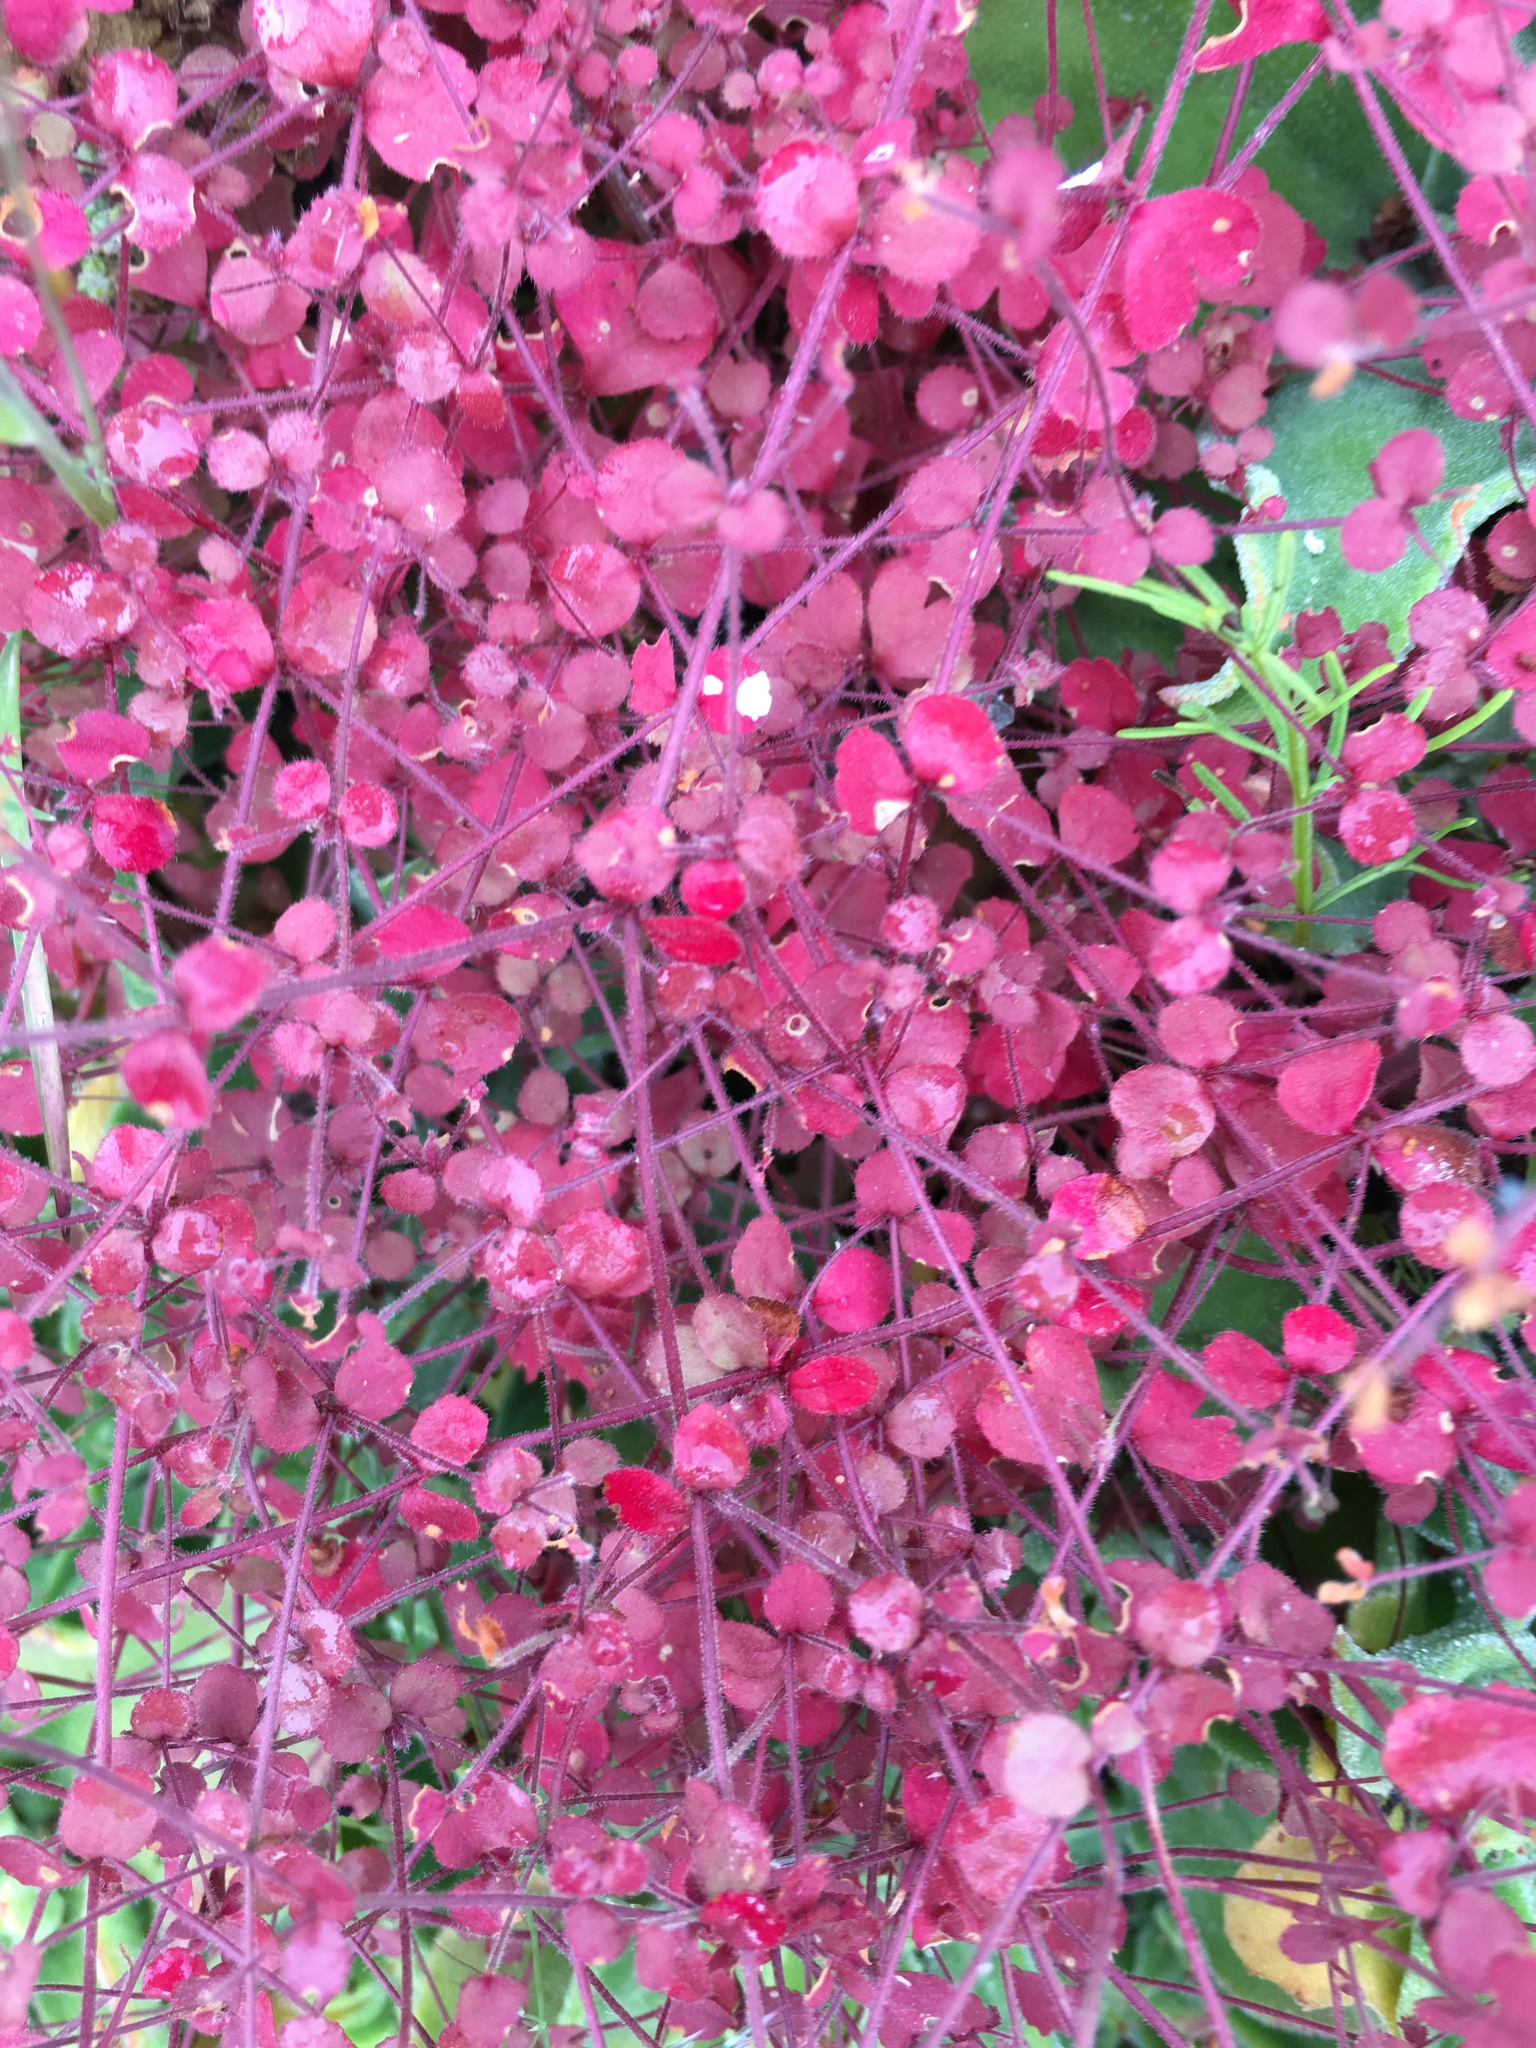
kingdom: Plantae
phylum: Tracheophyta
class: Magnoliopsida
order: Caryophyllales
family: Polygonaceae
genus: Pterostegia
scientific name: Pterostegia drymarioides
